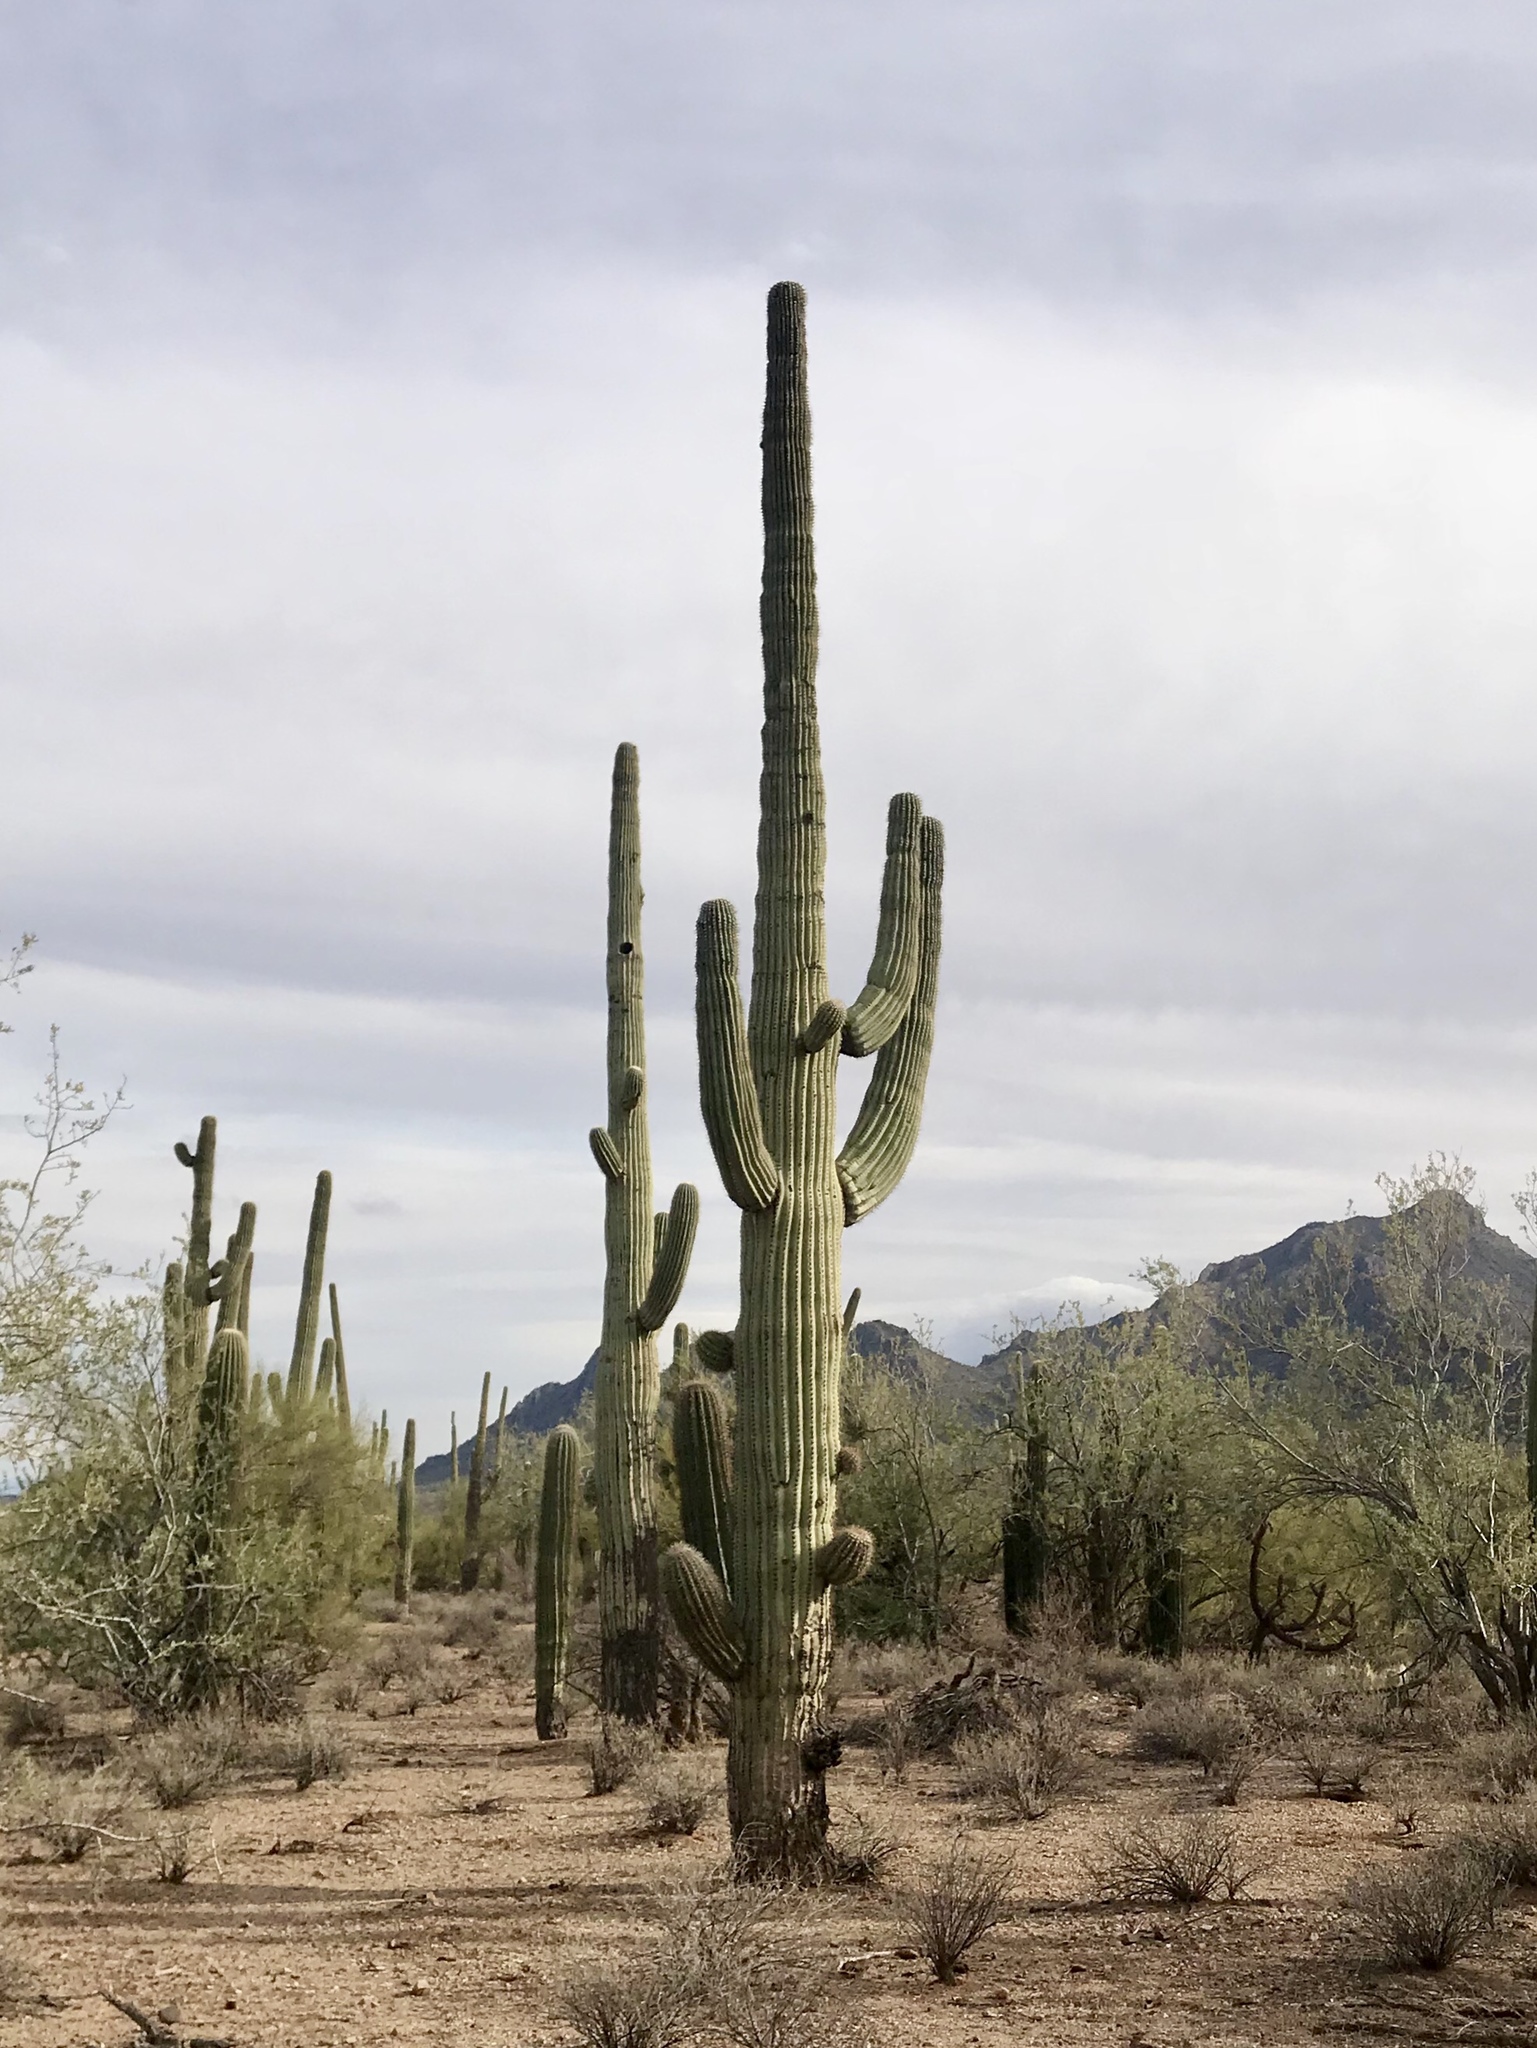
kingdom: Plantae
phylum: Tracheophyta
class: Magnoliopsida
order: Caryophyllales
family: Cactaceae
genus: Carnegiea
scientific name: Carnegiea gigantea
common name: Saguaro
